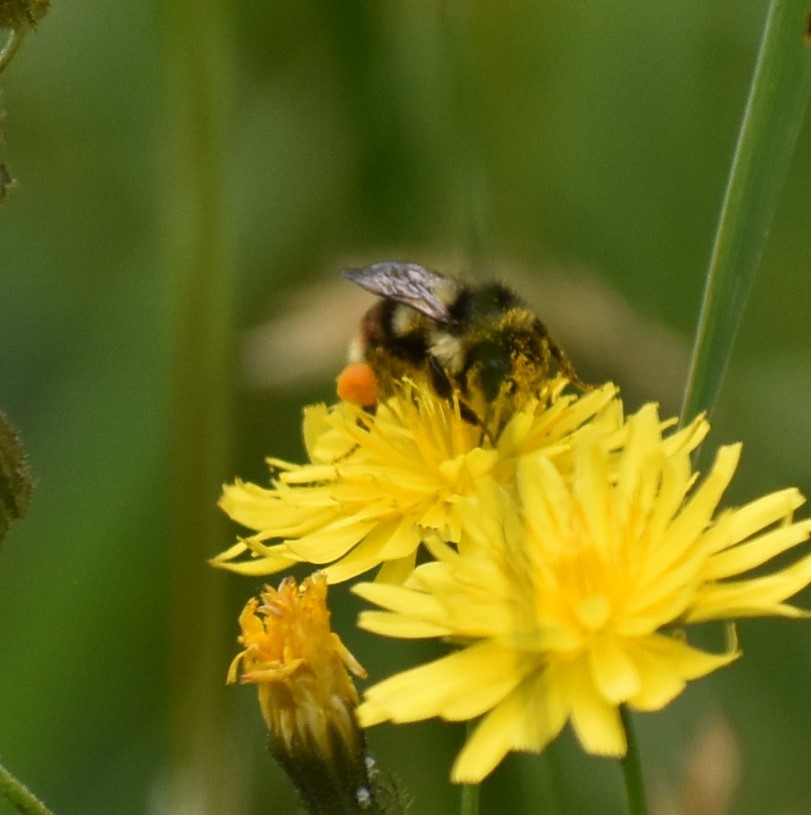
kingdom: Animalia
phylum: Arthropoda
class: Insecta
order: Hymenoptera
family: Apidae
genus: Bombus
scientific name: Bombus vancouverensis
